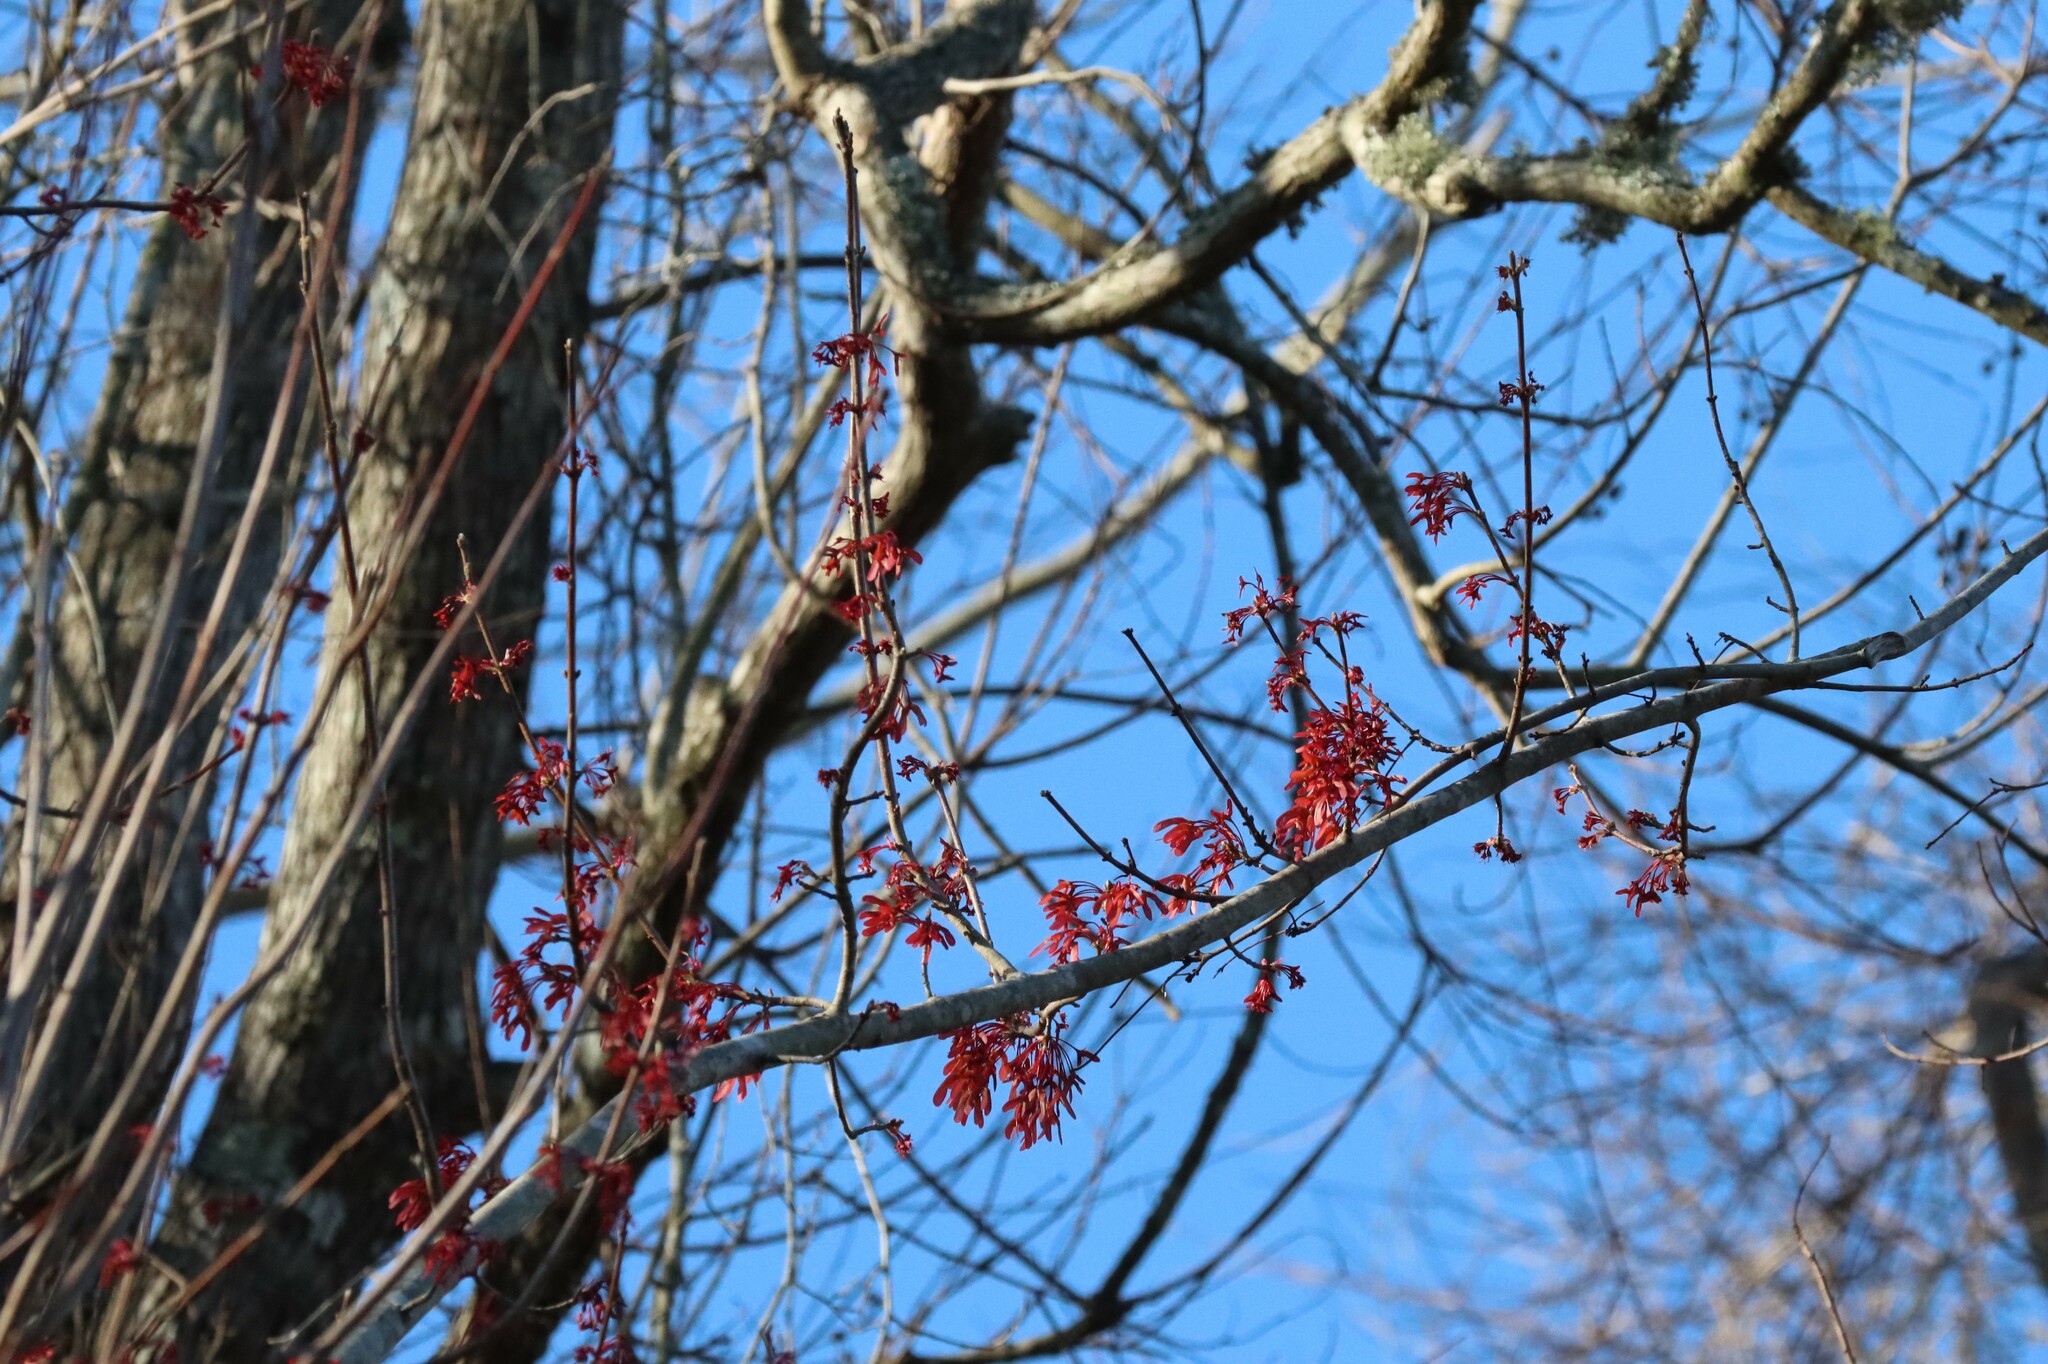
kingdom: Plantae
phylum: Tracheophyta
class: Magnoliopsida
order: Sapindales
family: Sapindaceae
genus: Acer
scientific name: Acer rubrum
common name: Red maple
